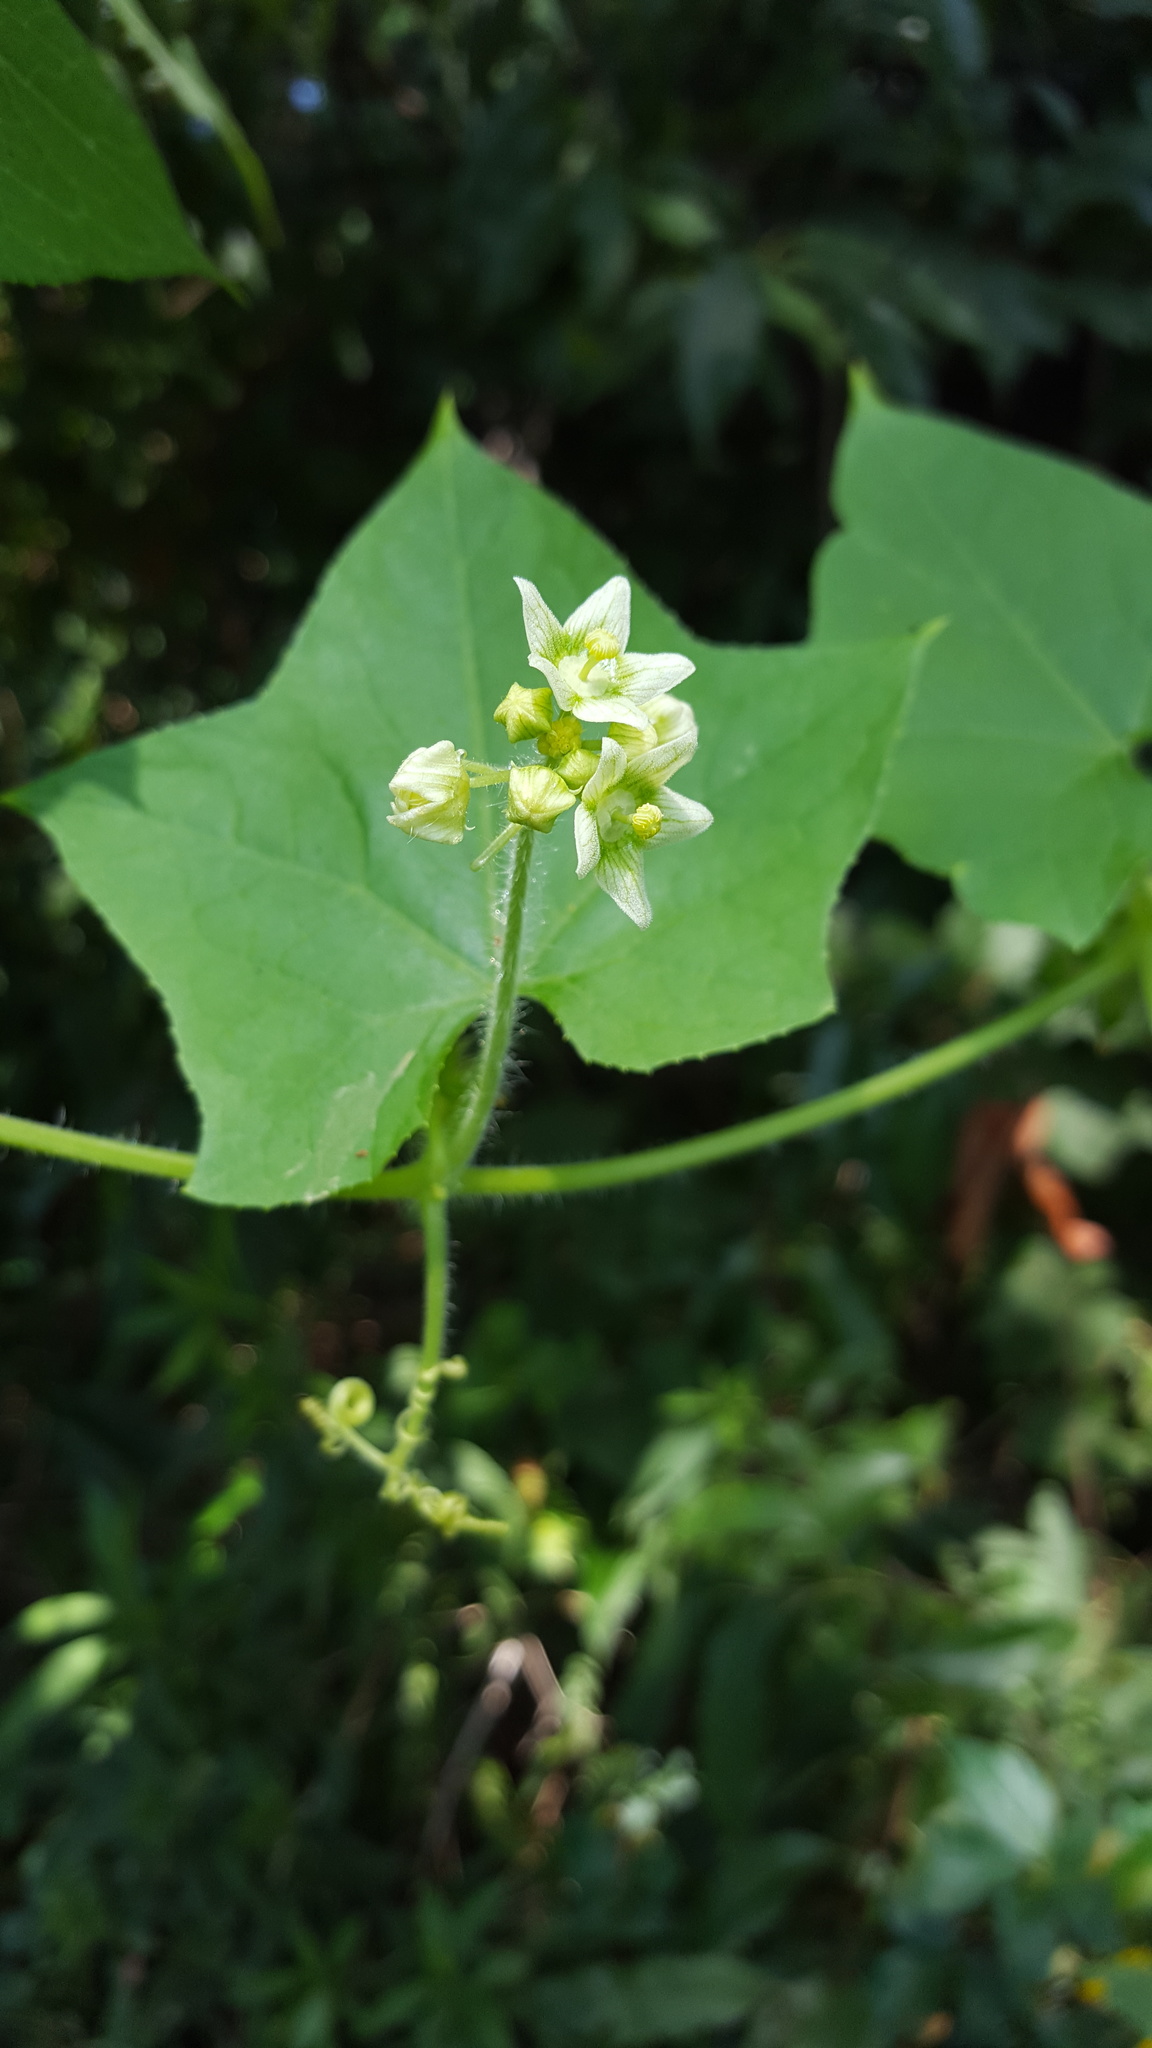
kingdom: Plantae
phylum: Tracheophyta
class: Magnoliopsida
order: Cucurbitales
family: Cucurbitaceae
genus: Sicyos
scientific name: Sicyos angulatus
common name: Angled burr cucumber
